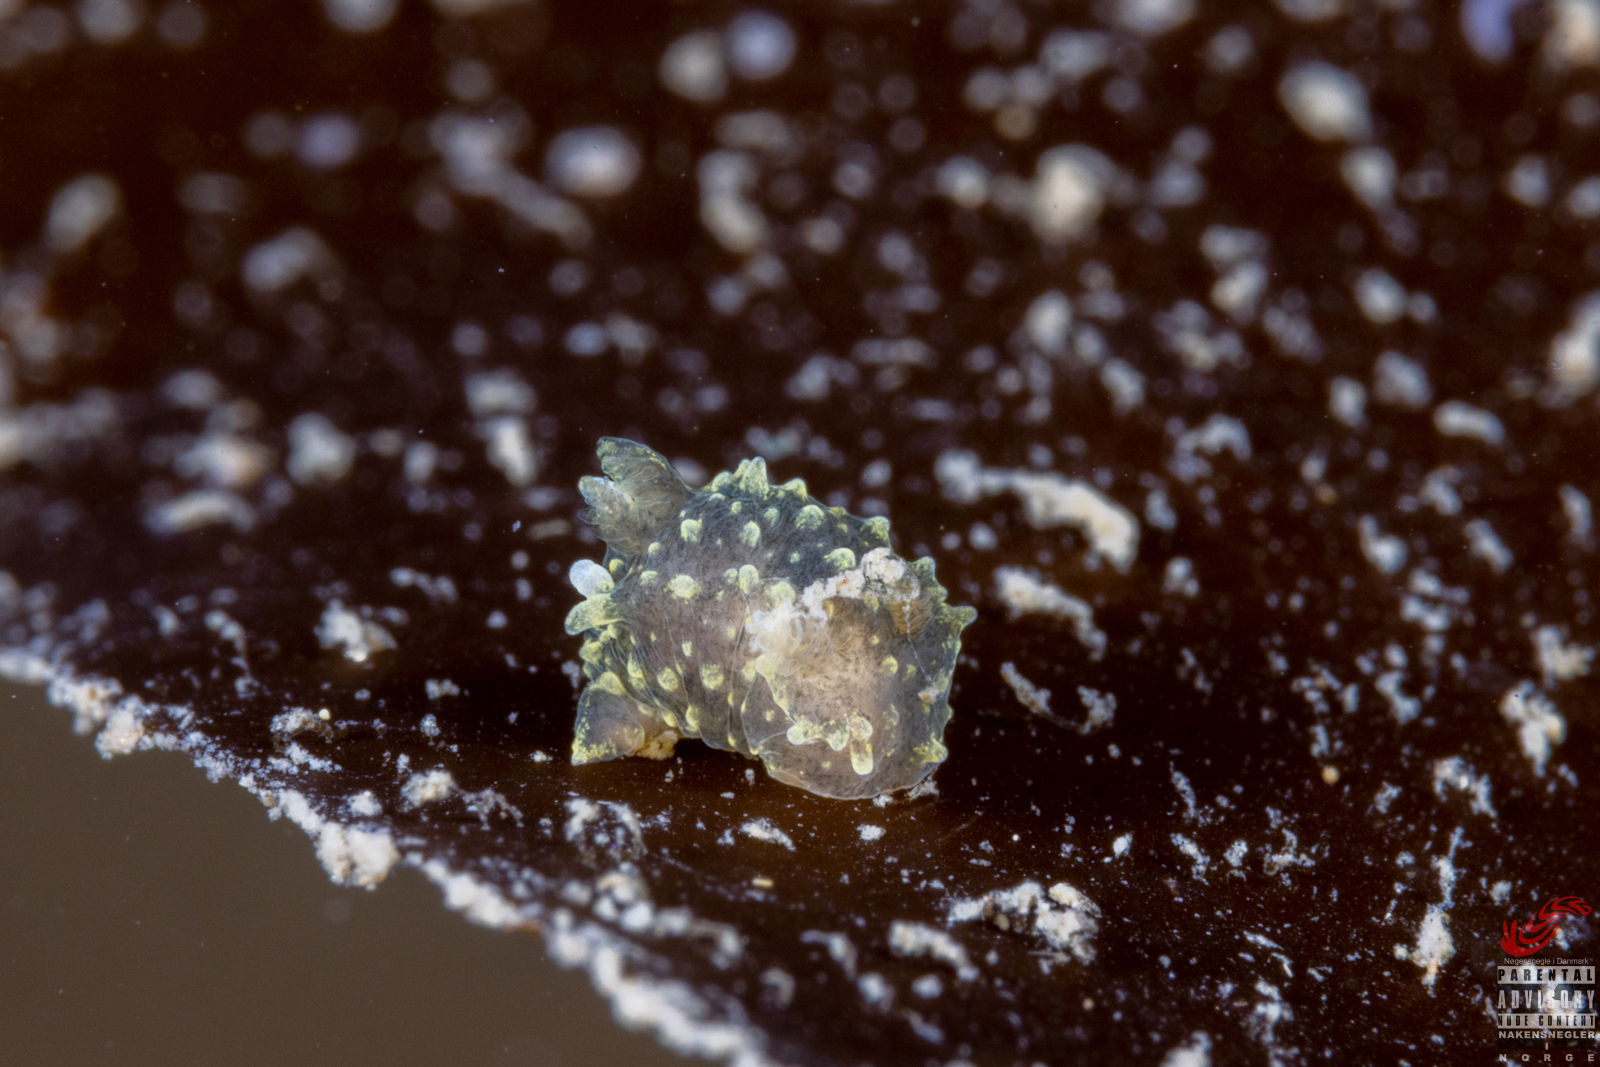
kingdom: Animalia
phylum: Mollusca
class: Gastropoda
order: Nudibranchia
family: Polyceridae
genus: Palio
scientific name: Palio dubia
